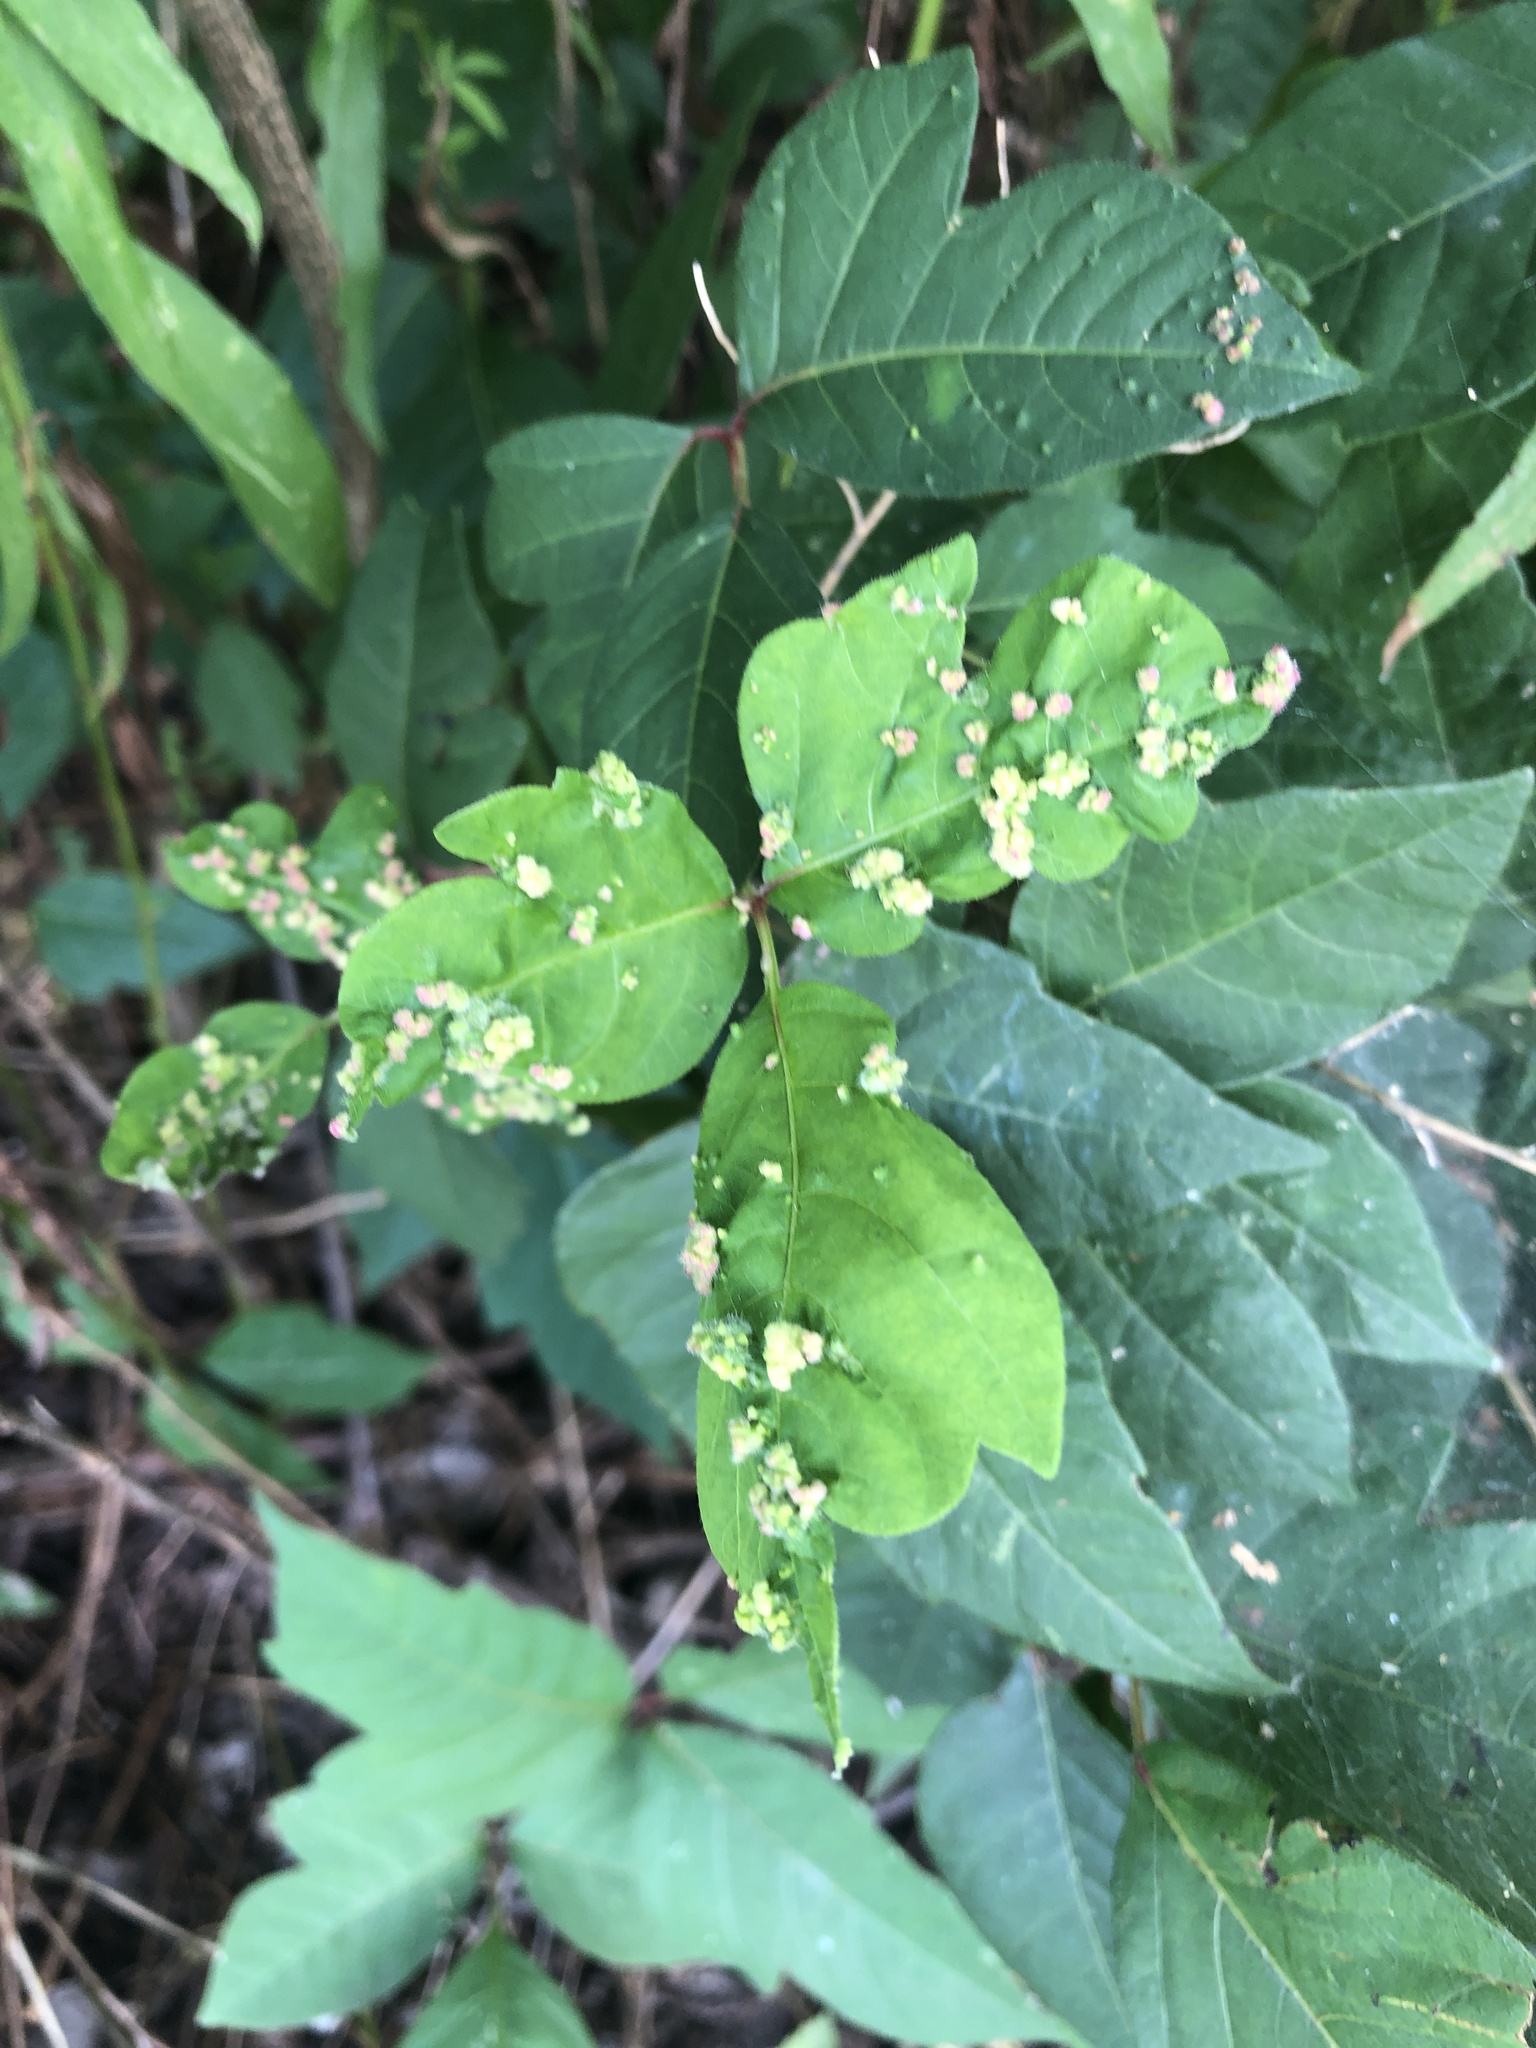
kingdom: Animalia
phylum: Arthropoda
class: Arachnida
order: Trombidiformes
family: Eriophyidae
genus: Aculops
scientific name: Aculops
